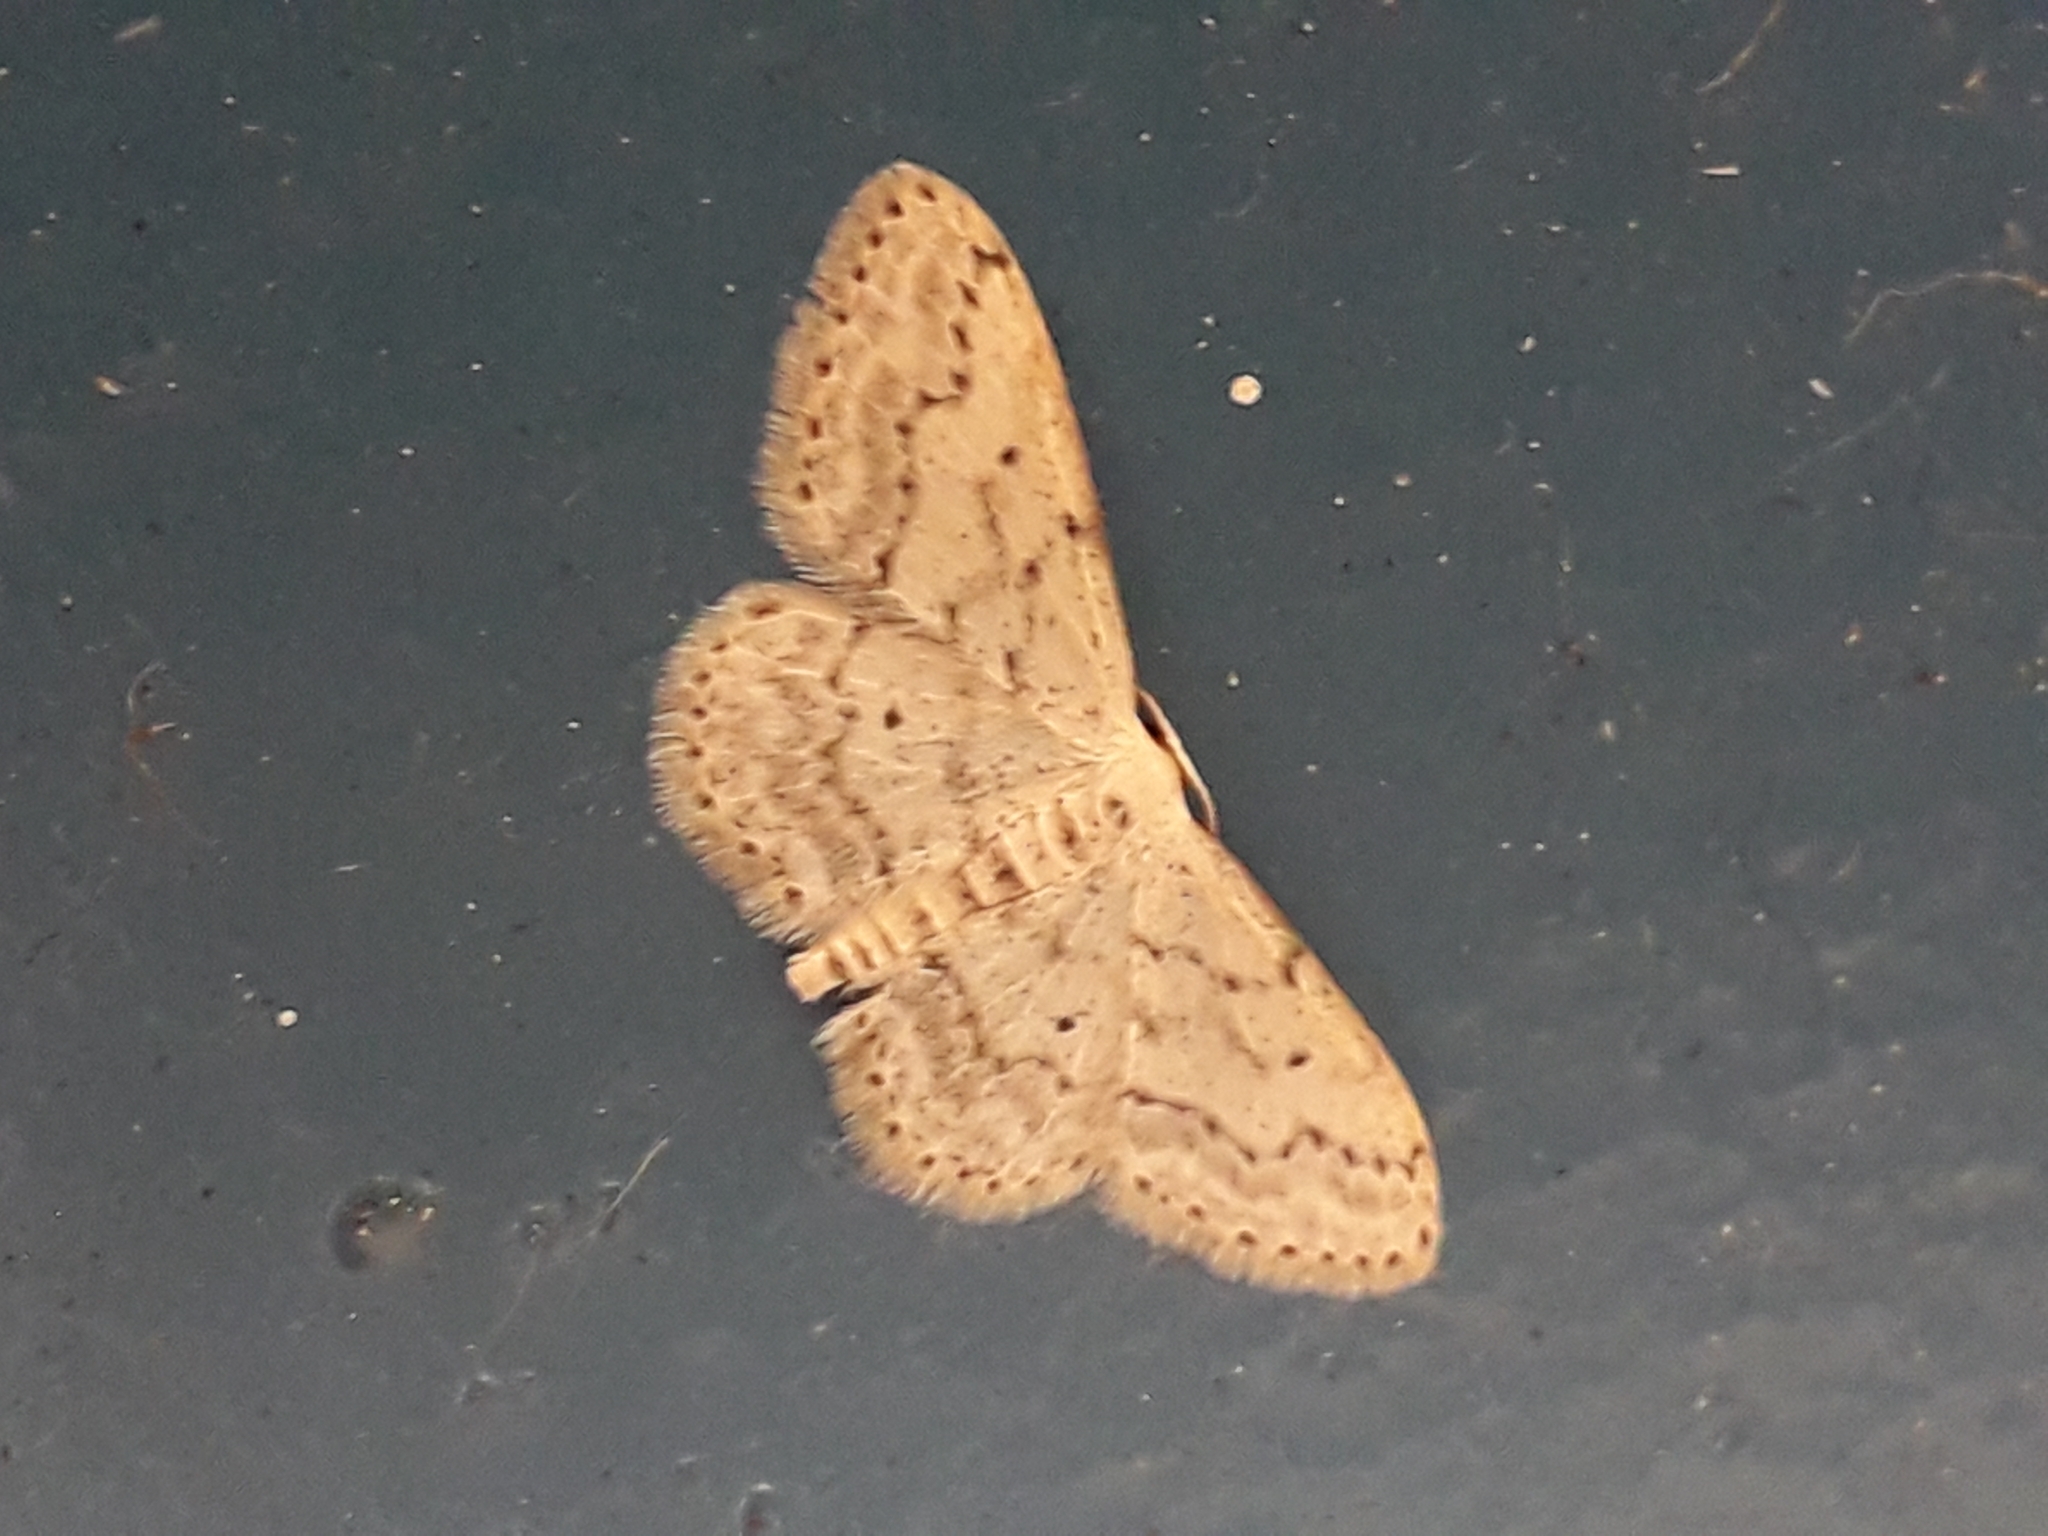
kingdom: Animalia
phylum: Arthropoda
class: Insecta
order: Lepidoptera
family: Geometridae
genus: Idaea
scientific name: Idaea seriata
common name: Small dusty wave
